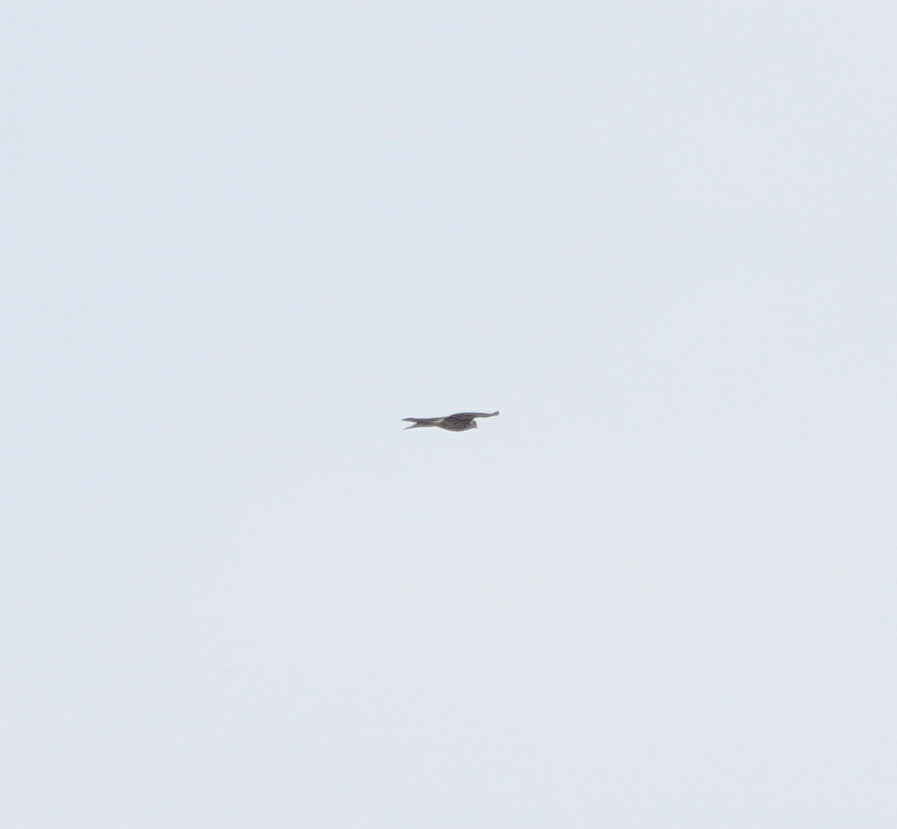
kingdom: Animalia
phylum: Chordata
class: Aves
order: Accipitriformes
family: Accipitridae
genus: Accipiter
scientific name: Accipiter nisus
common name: Eurasian sparrowhawk
